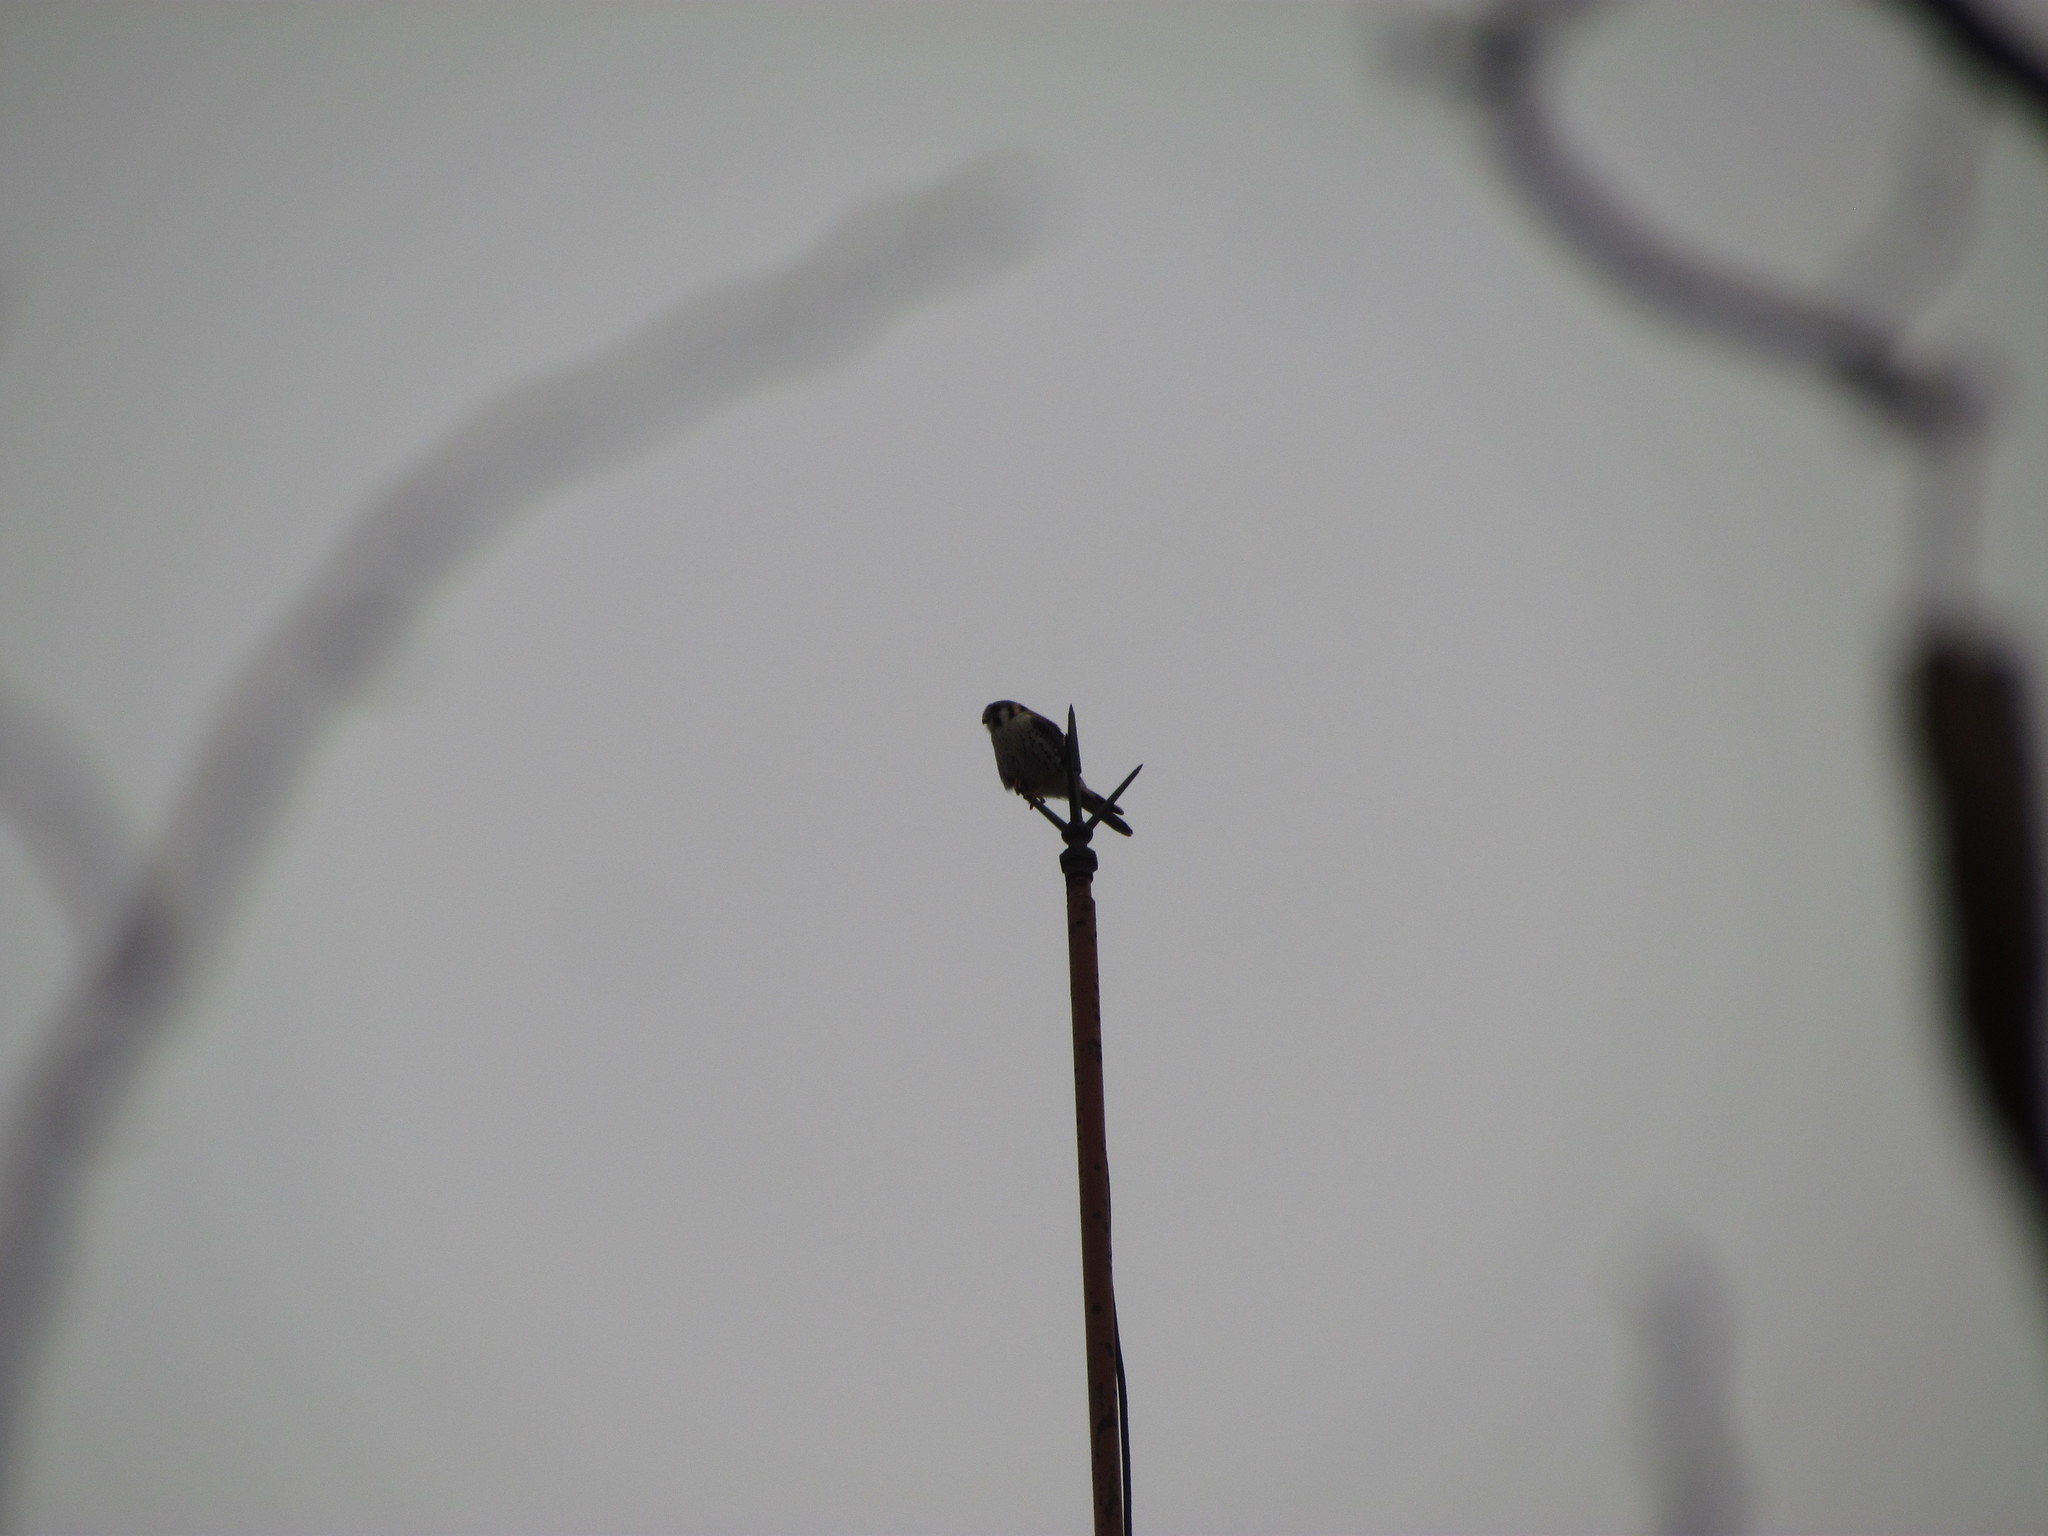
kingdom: Animalia
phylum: Chordata
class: Aves
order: Falconiformes
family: Falconidae
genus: Falco
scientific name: Falco sparverius
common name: American kestrel
